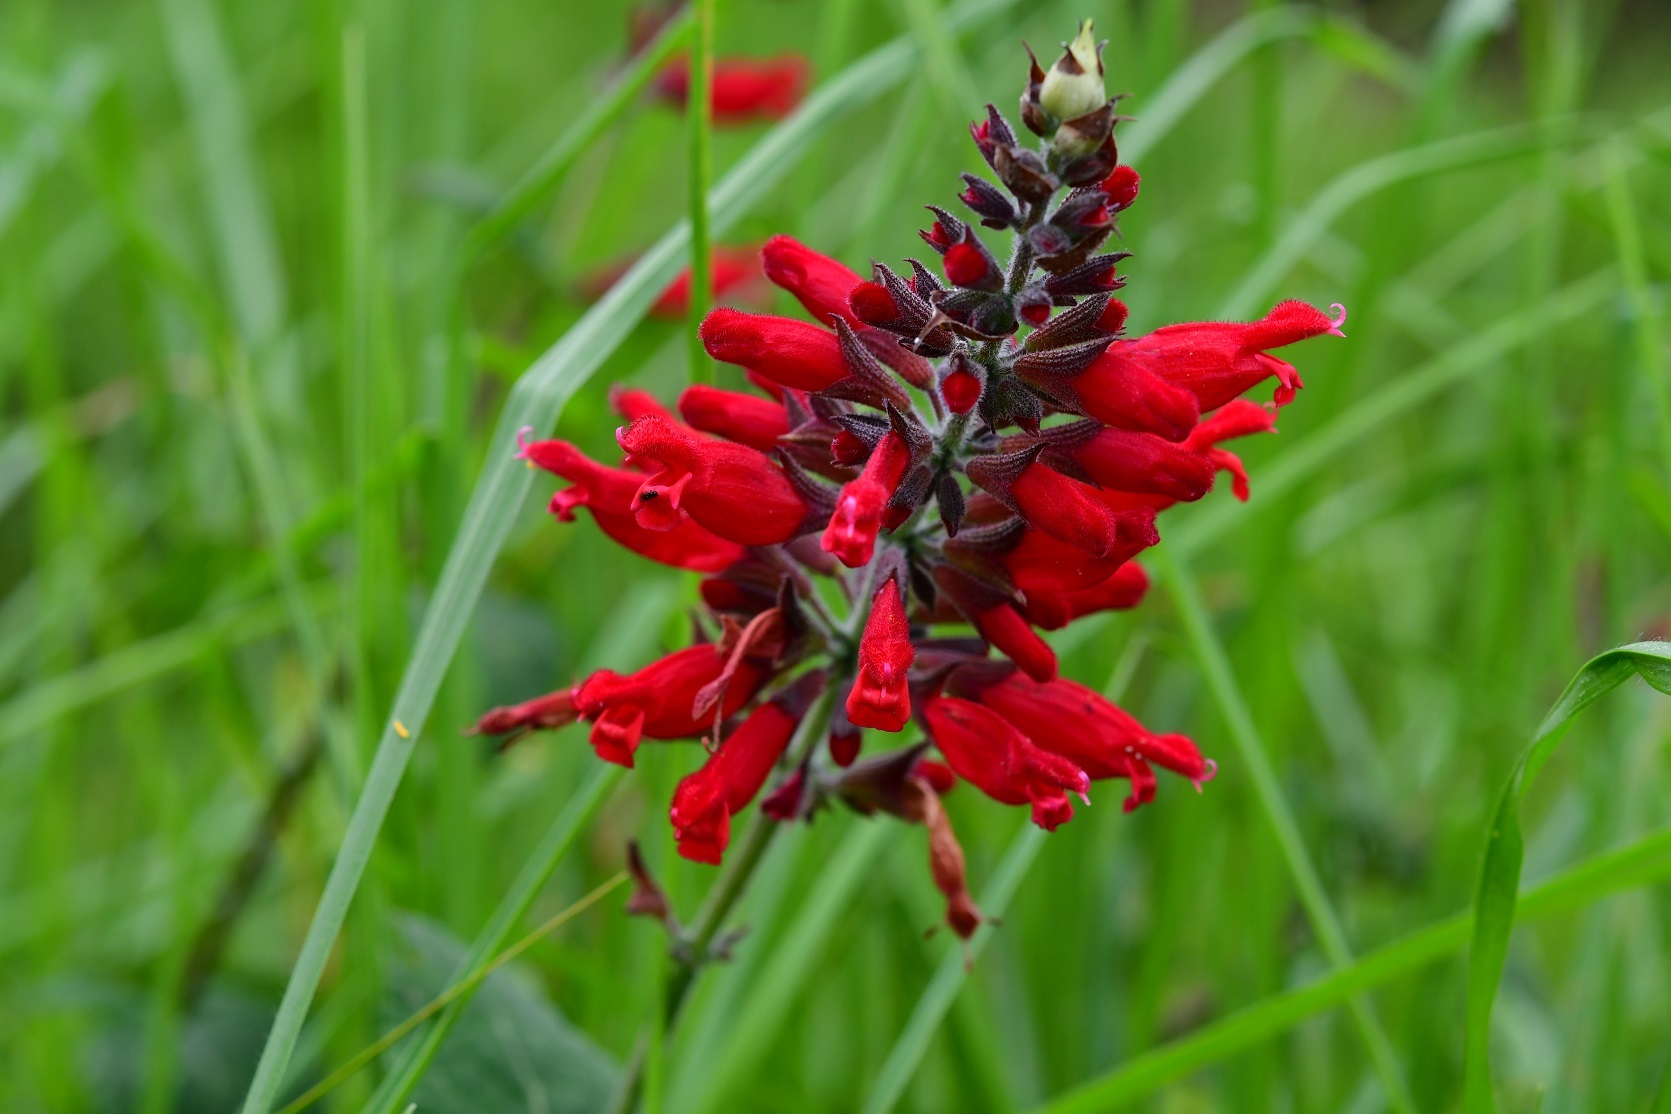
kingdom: Plantae
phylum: Tracheophyta
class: Magnoliopsida
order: Lamiales
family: Lamiaceae
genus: Salvia
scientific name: Salvia holwayi
